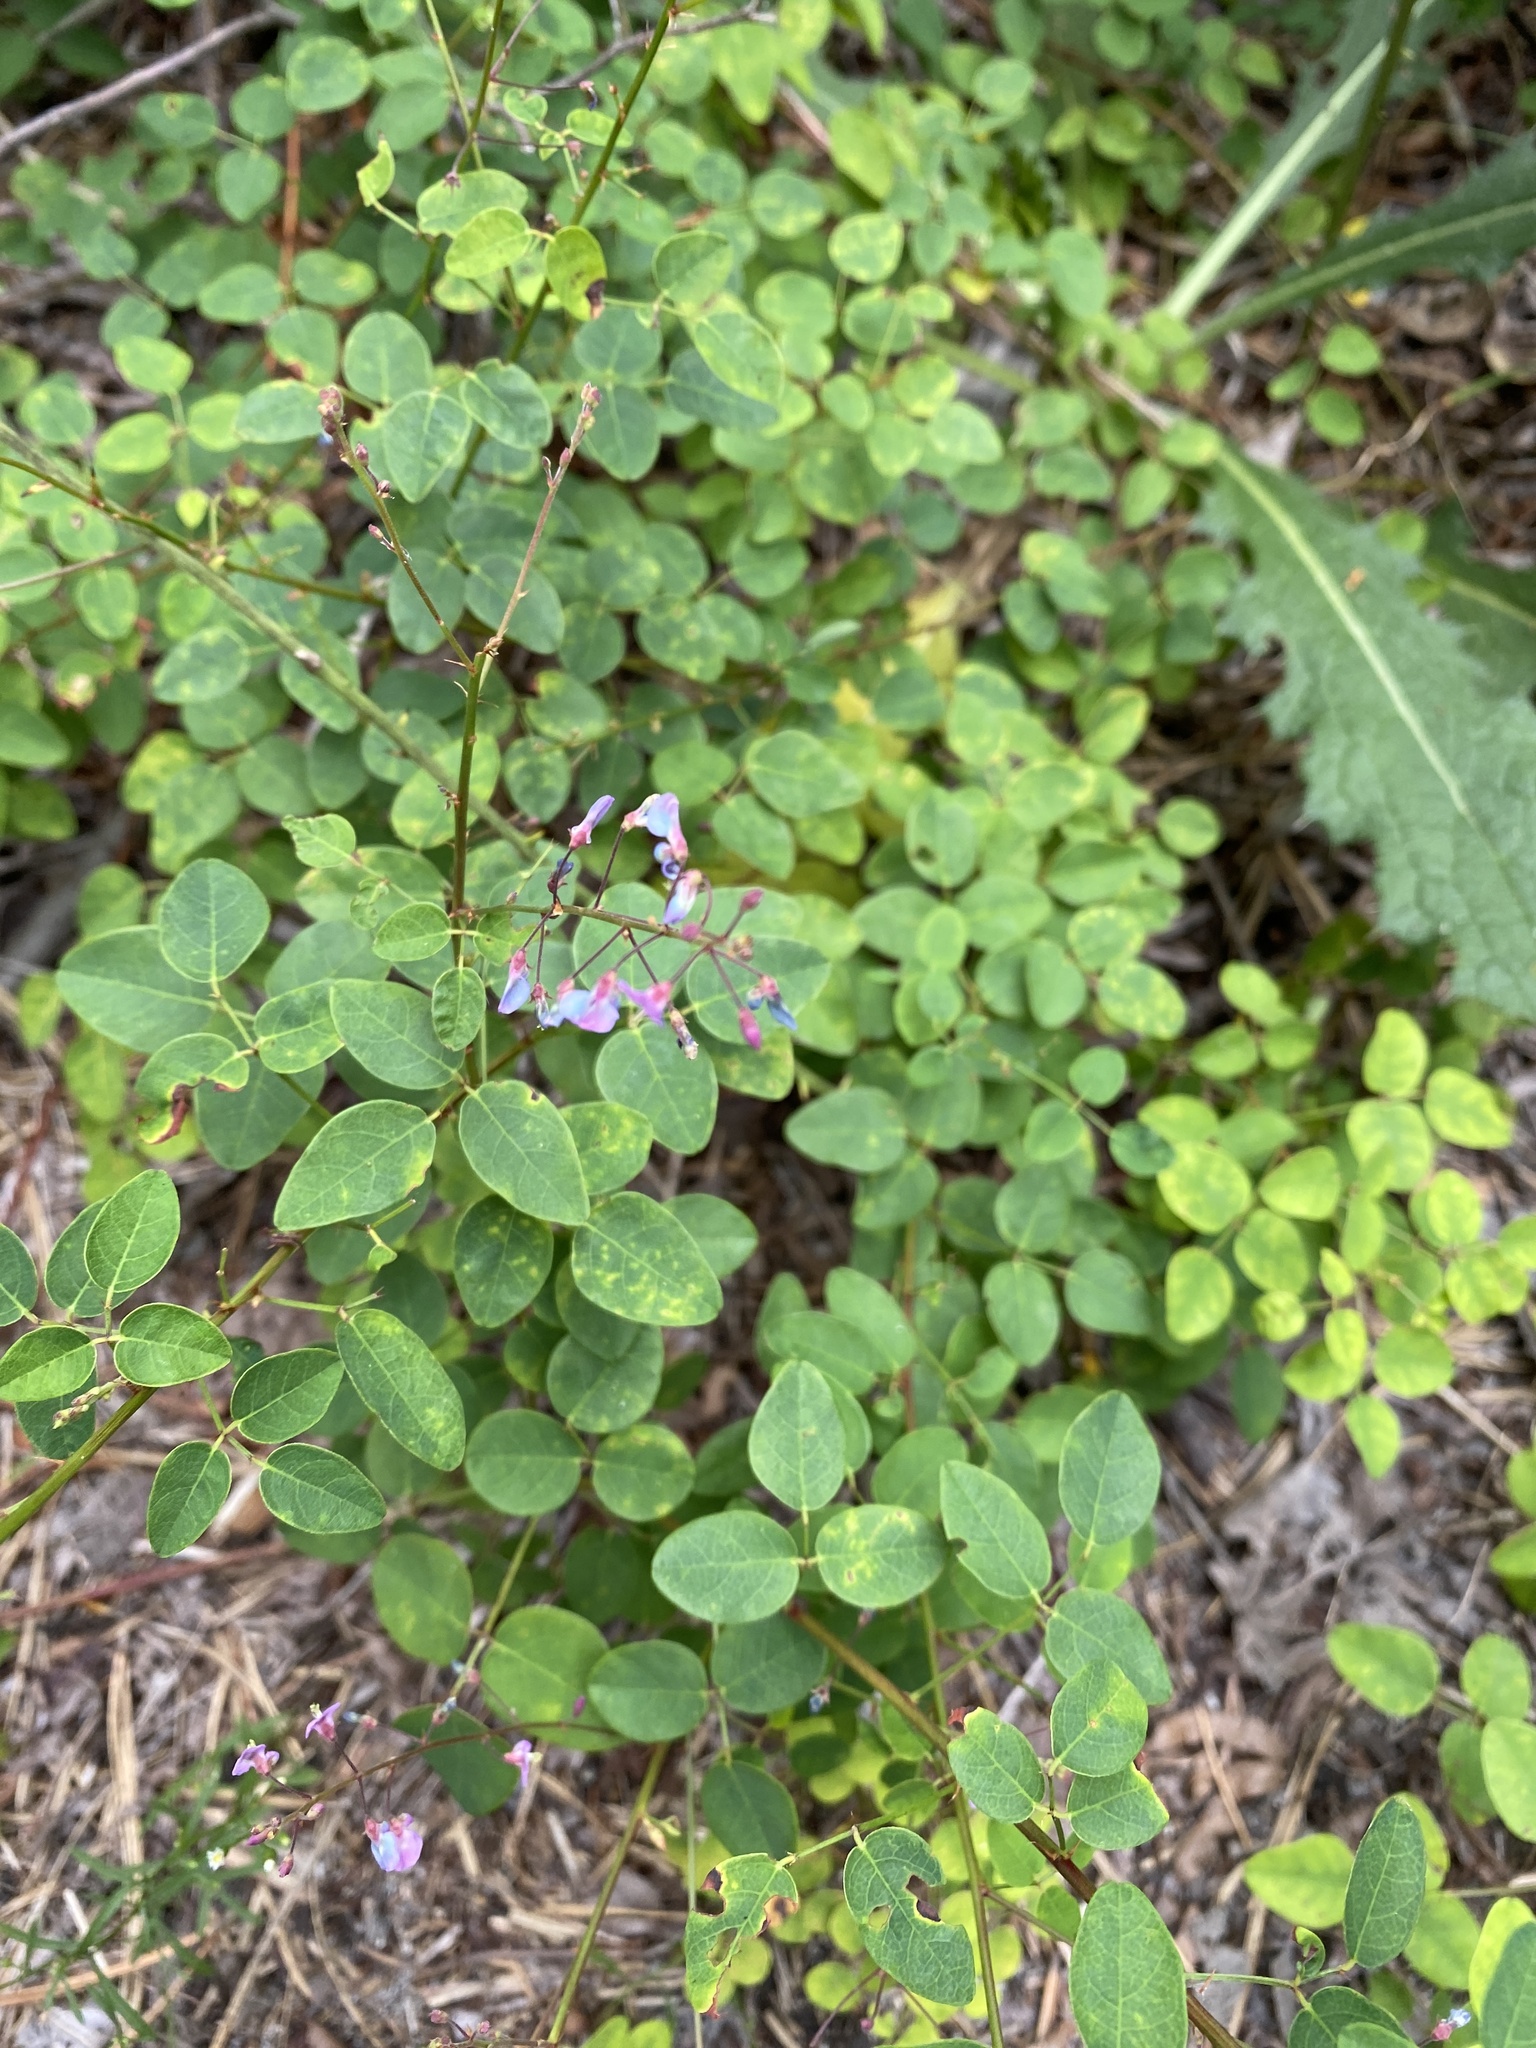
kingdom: Plantae
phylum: Tracheophyta
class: Magnoliopsida
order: Fabales
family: Fabaceae
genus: Desmodium
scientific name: Desmodium marilandicum
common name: Maryland tick-trefoil
